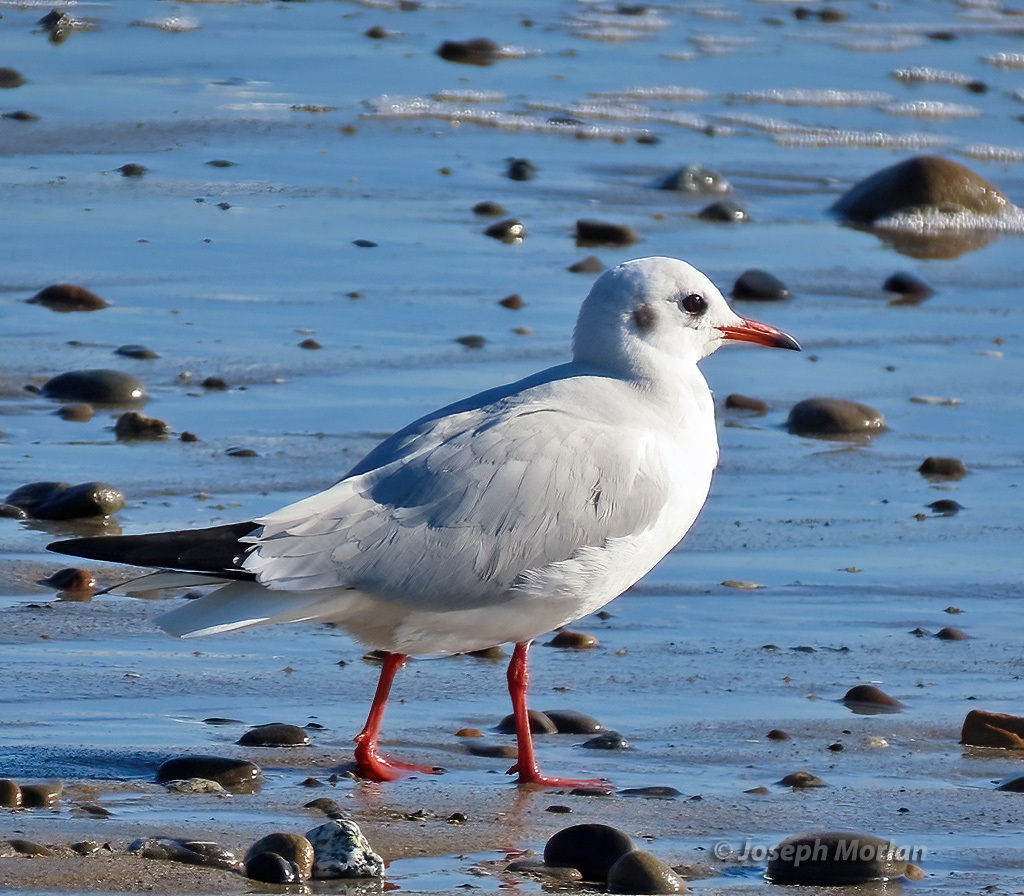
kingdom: Animalia
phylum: Chordata
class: Aves
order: Charadriiformes
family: Laridae
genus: Chroicocephalus
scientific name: Chroicocephalus ridibundus
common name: Black-headed gull
